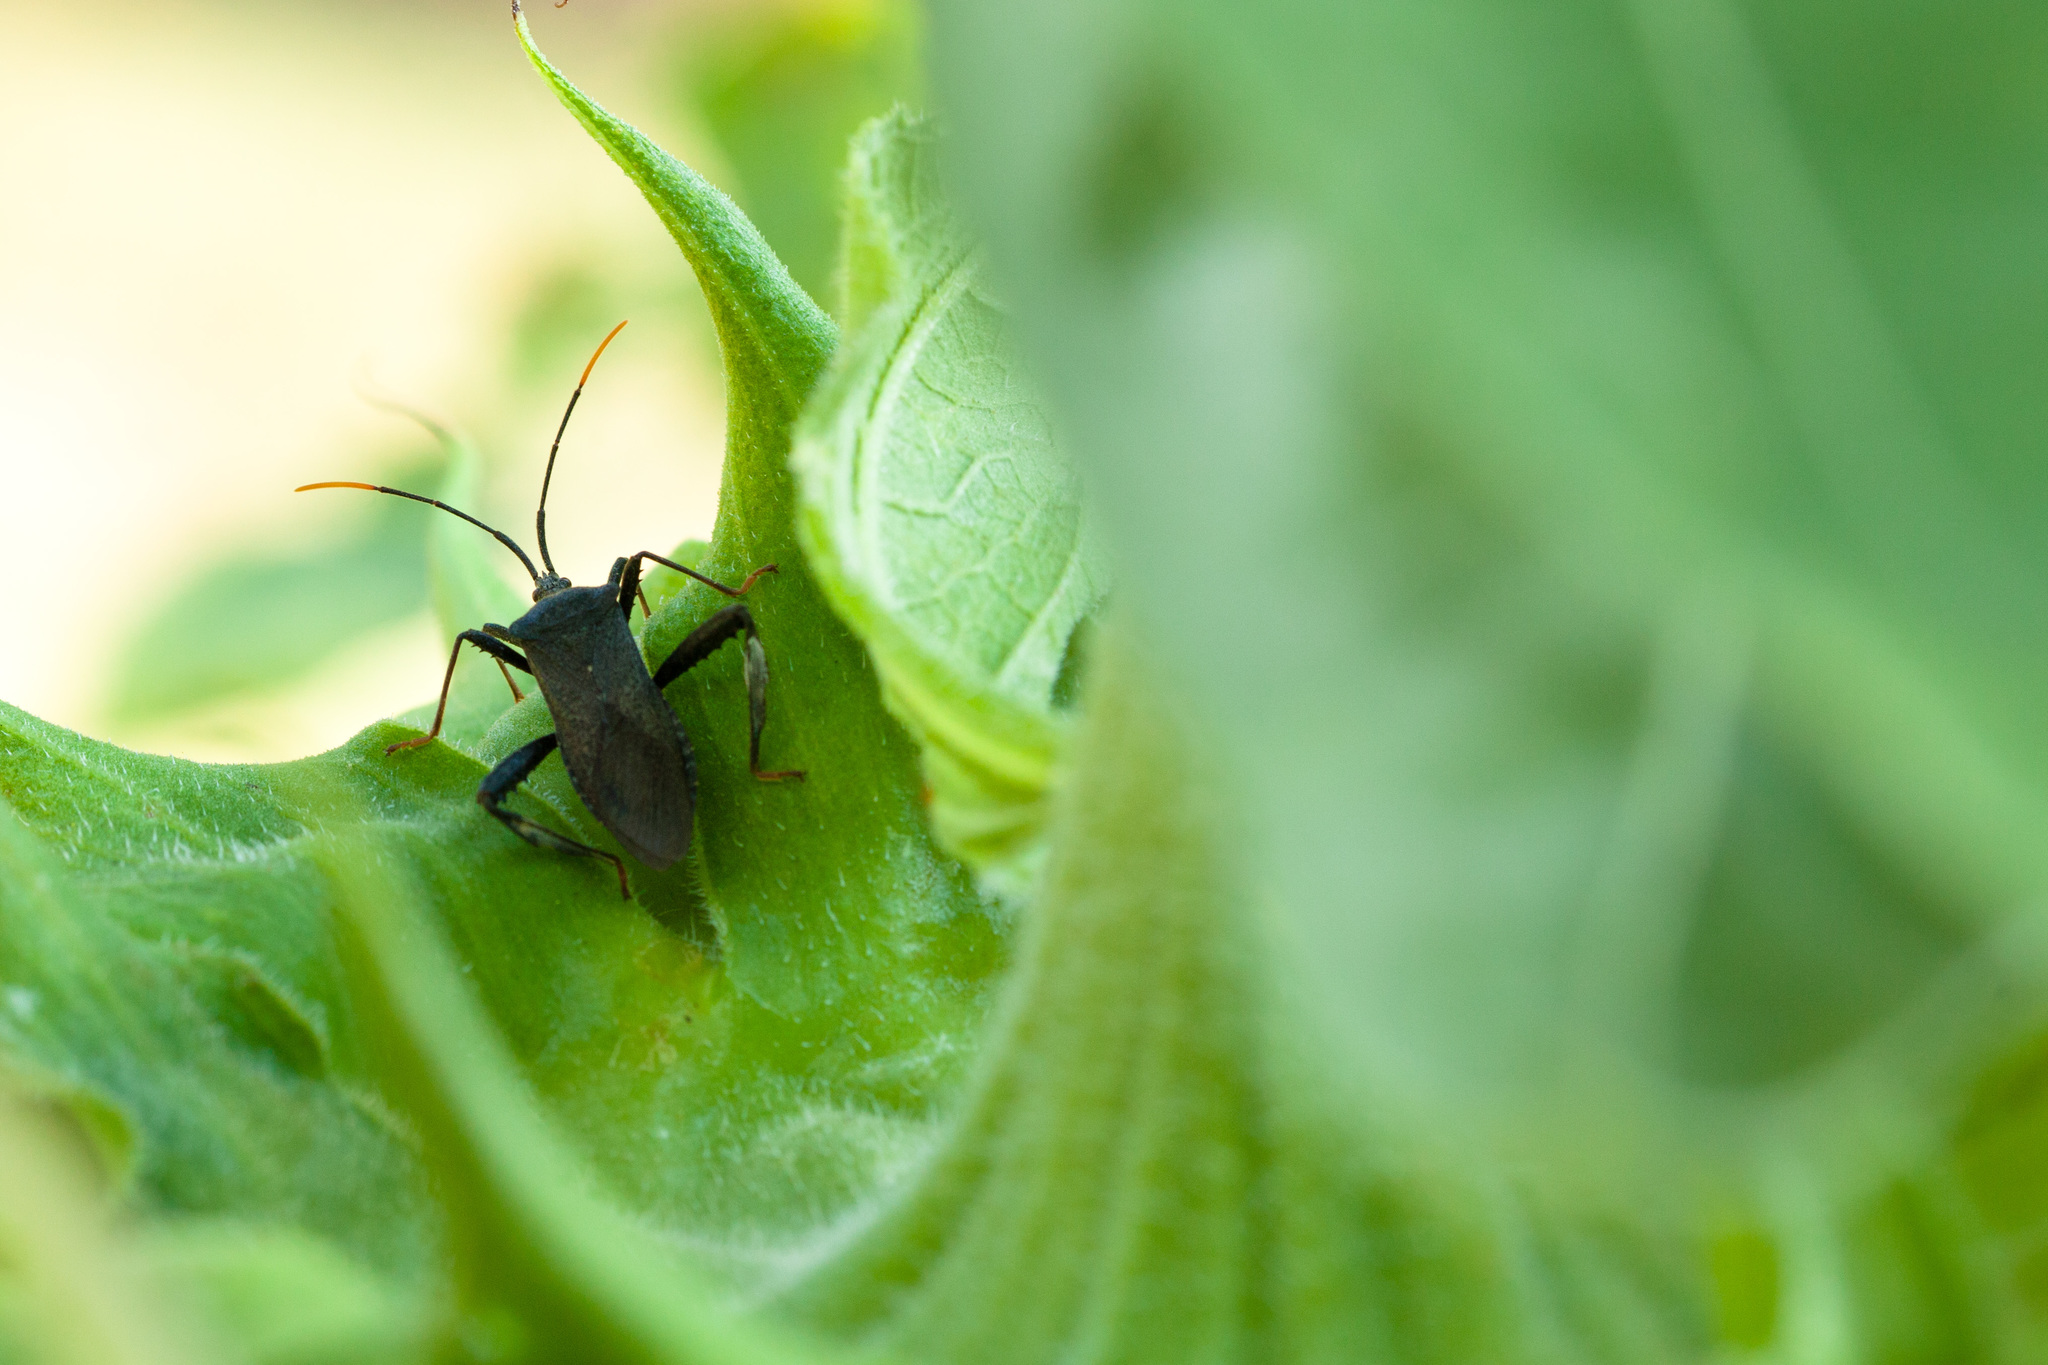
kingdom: Animalia
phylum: Arthropoda
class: Insecta
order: Hemiptera
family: Coreidae
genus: Acanthocephala
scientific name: Acanthocephala terminalis
